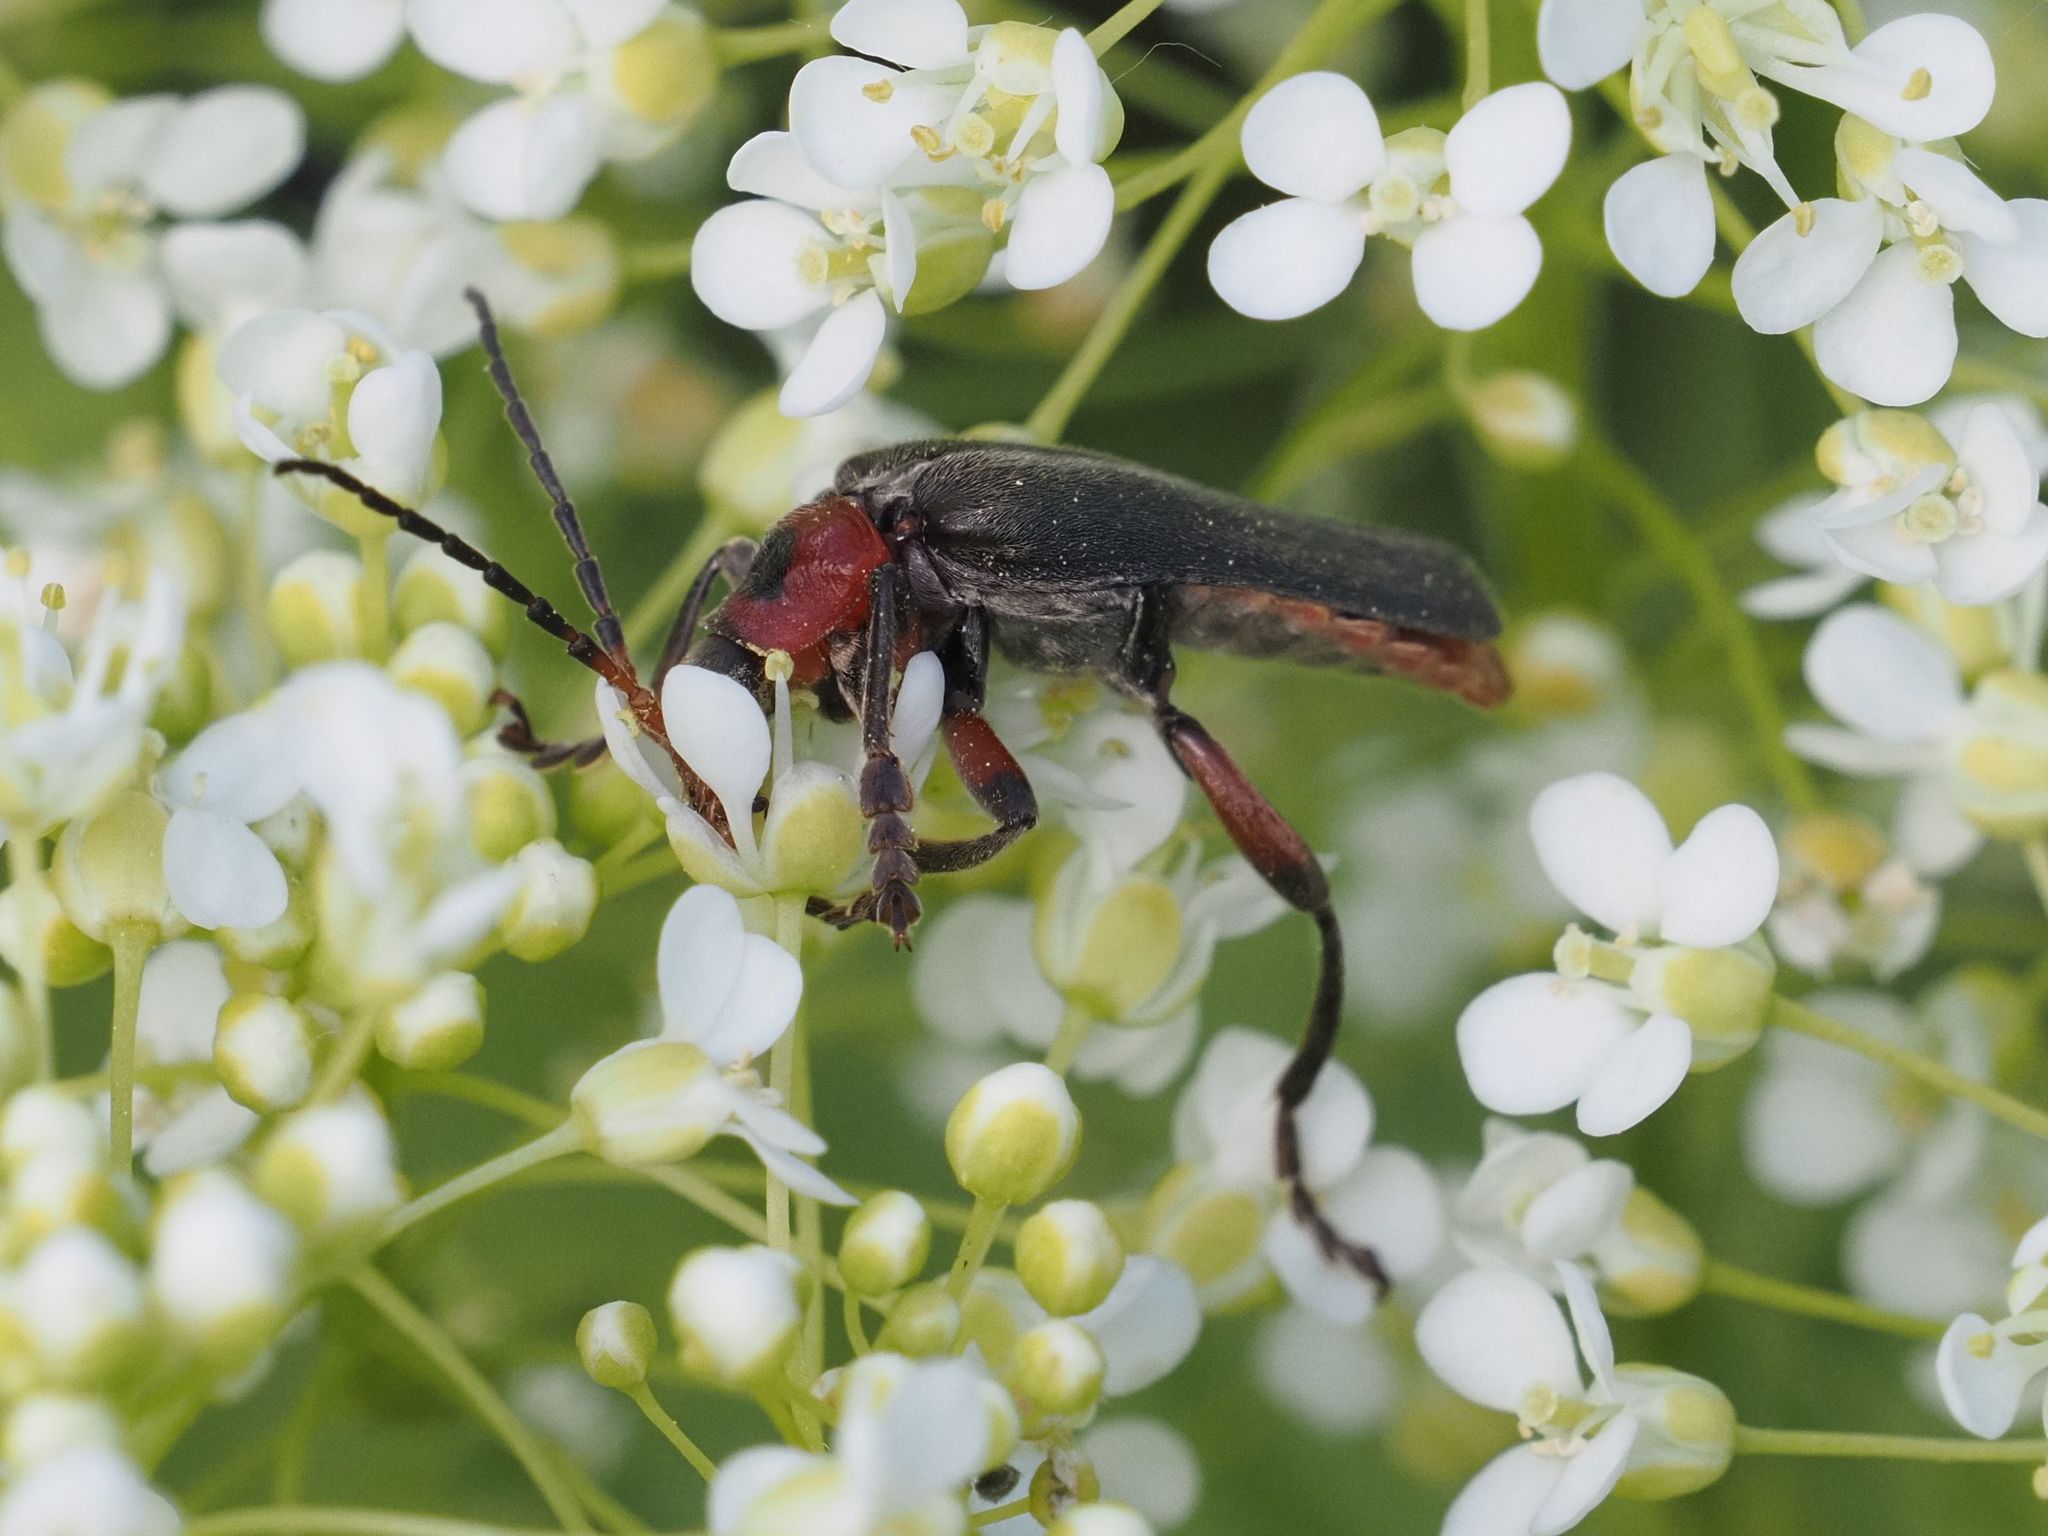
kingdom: Animalia
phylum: Arthropoda
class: Insecta
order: Coleoptera
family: Cantharidae
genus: Cantharis
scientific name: Cantharis rustica
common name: Soldier beetle
